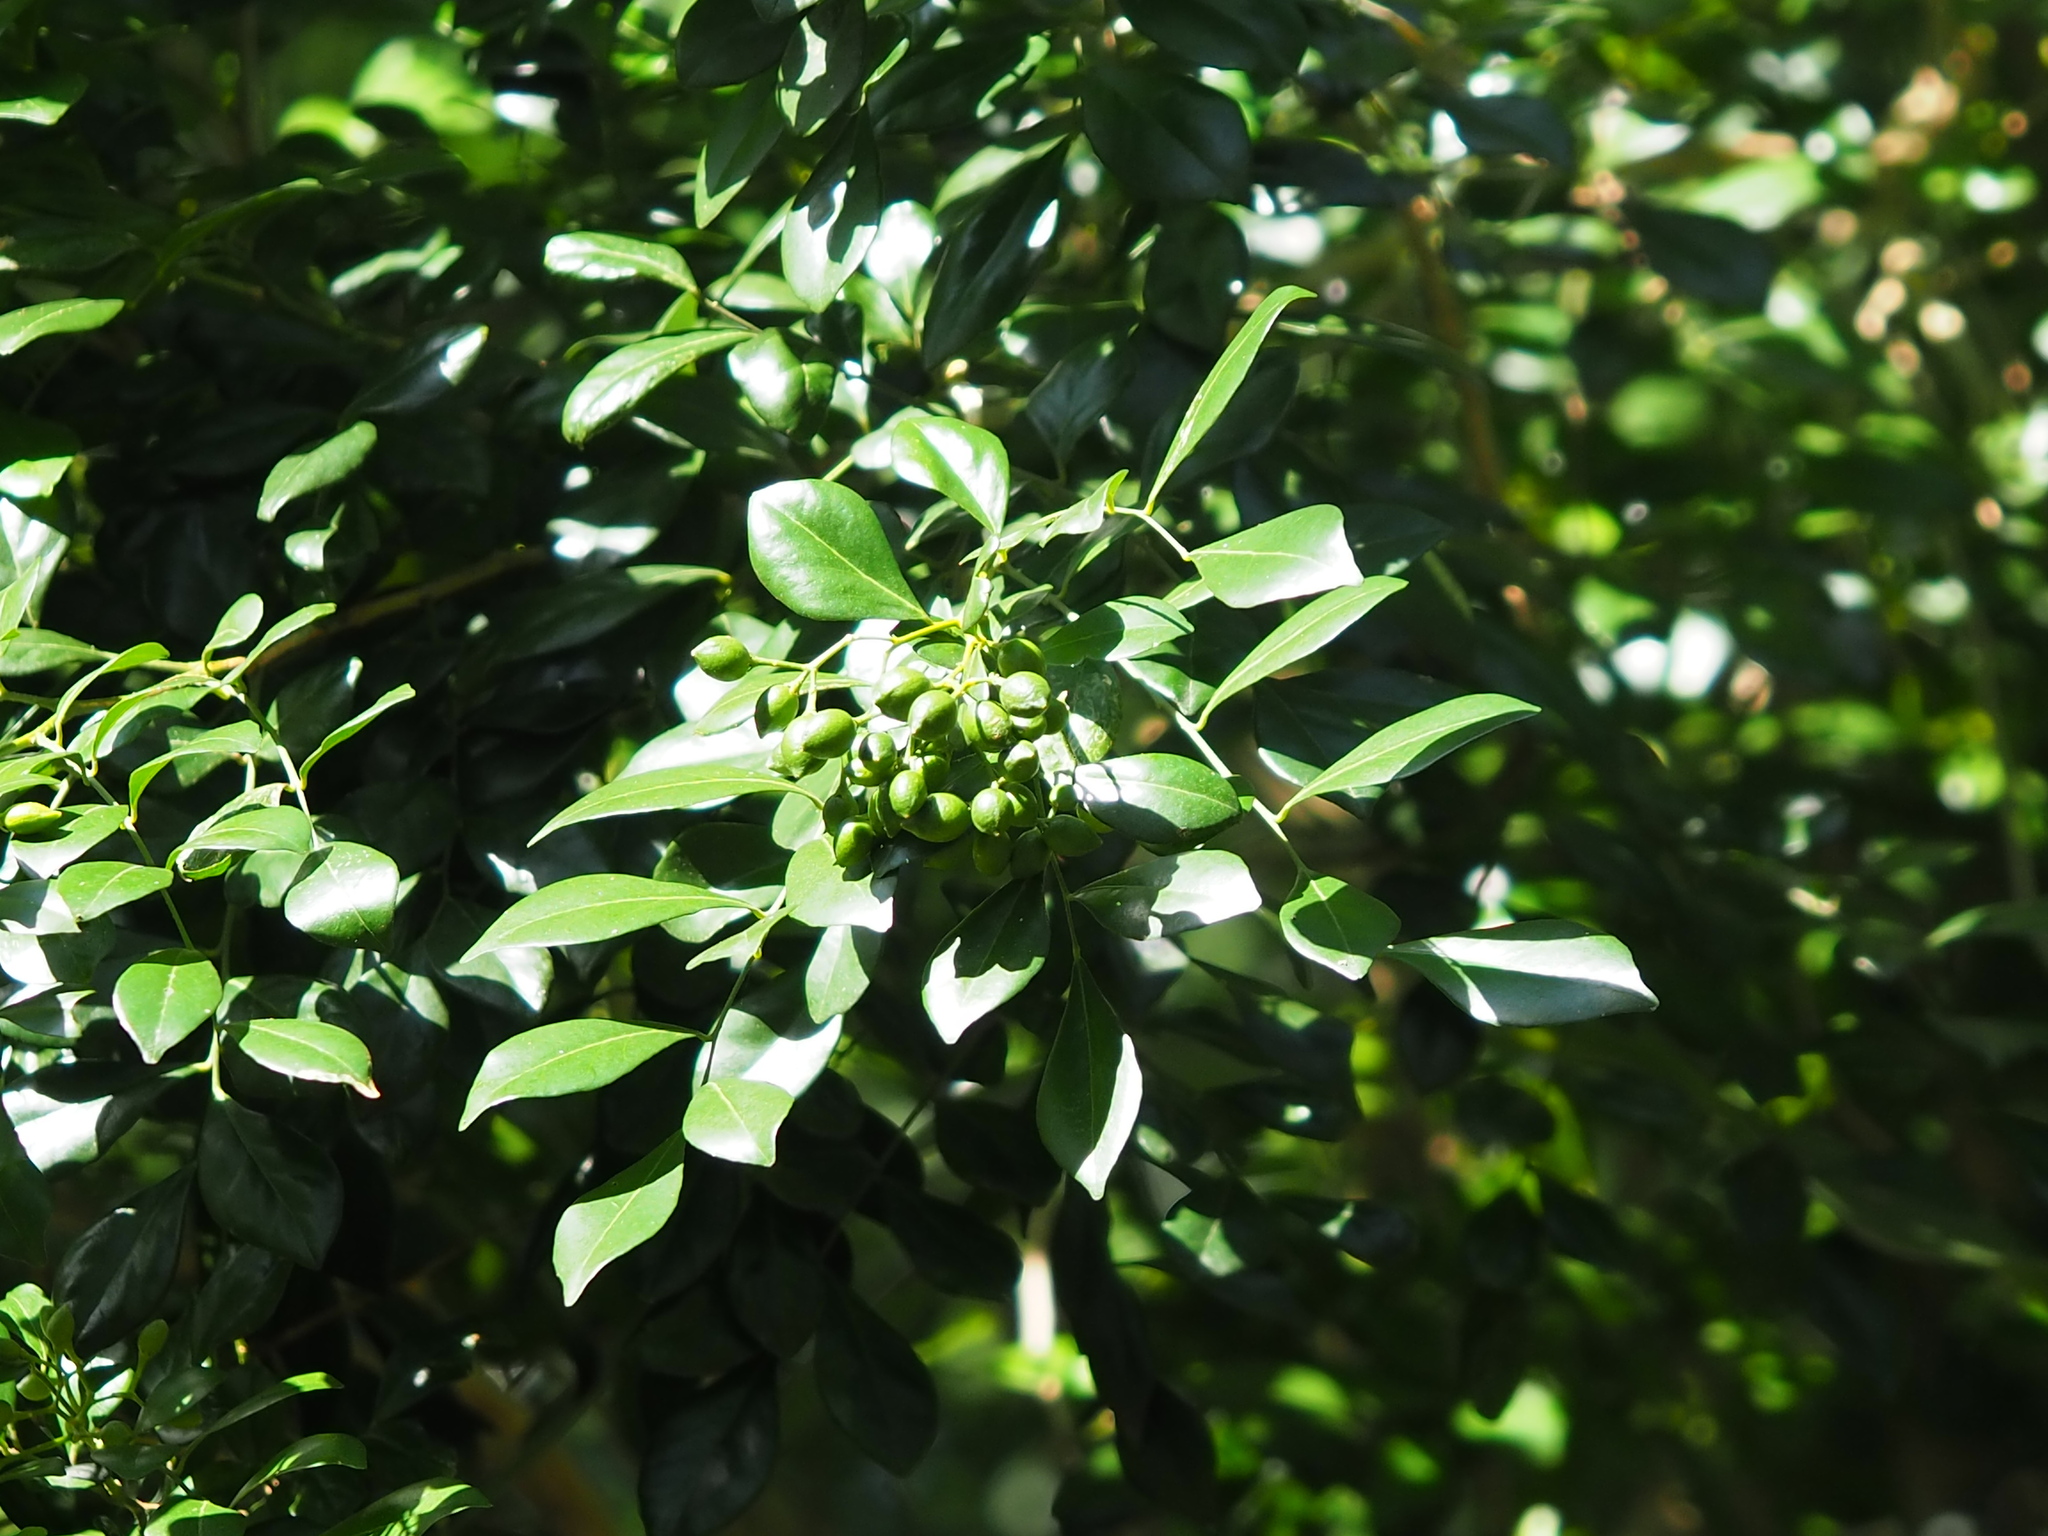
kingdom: Plantae
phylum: Tracheophyta
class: Magnoliopsida
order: Sapindales
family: Rutaceae
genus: Murraya
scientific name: Murraya paniculata
